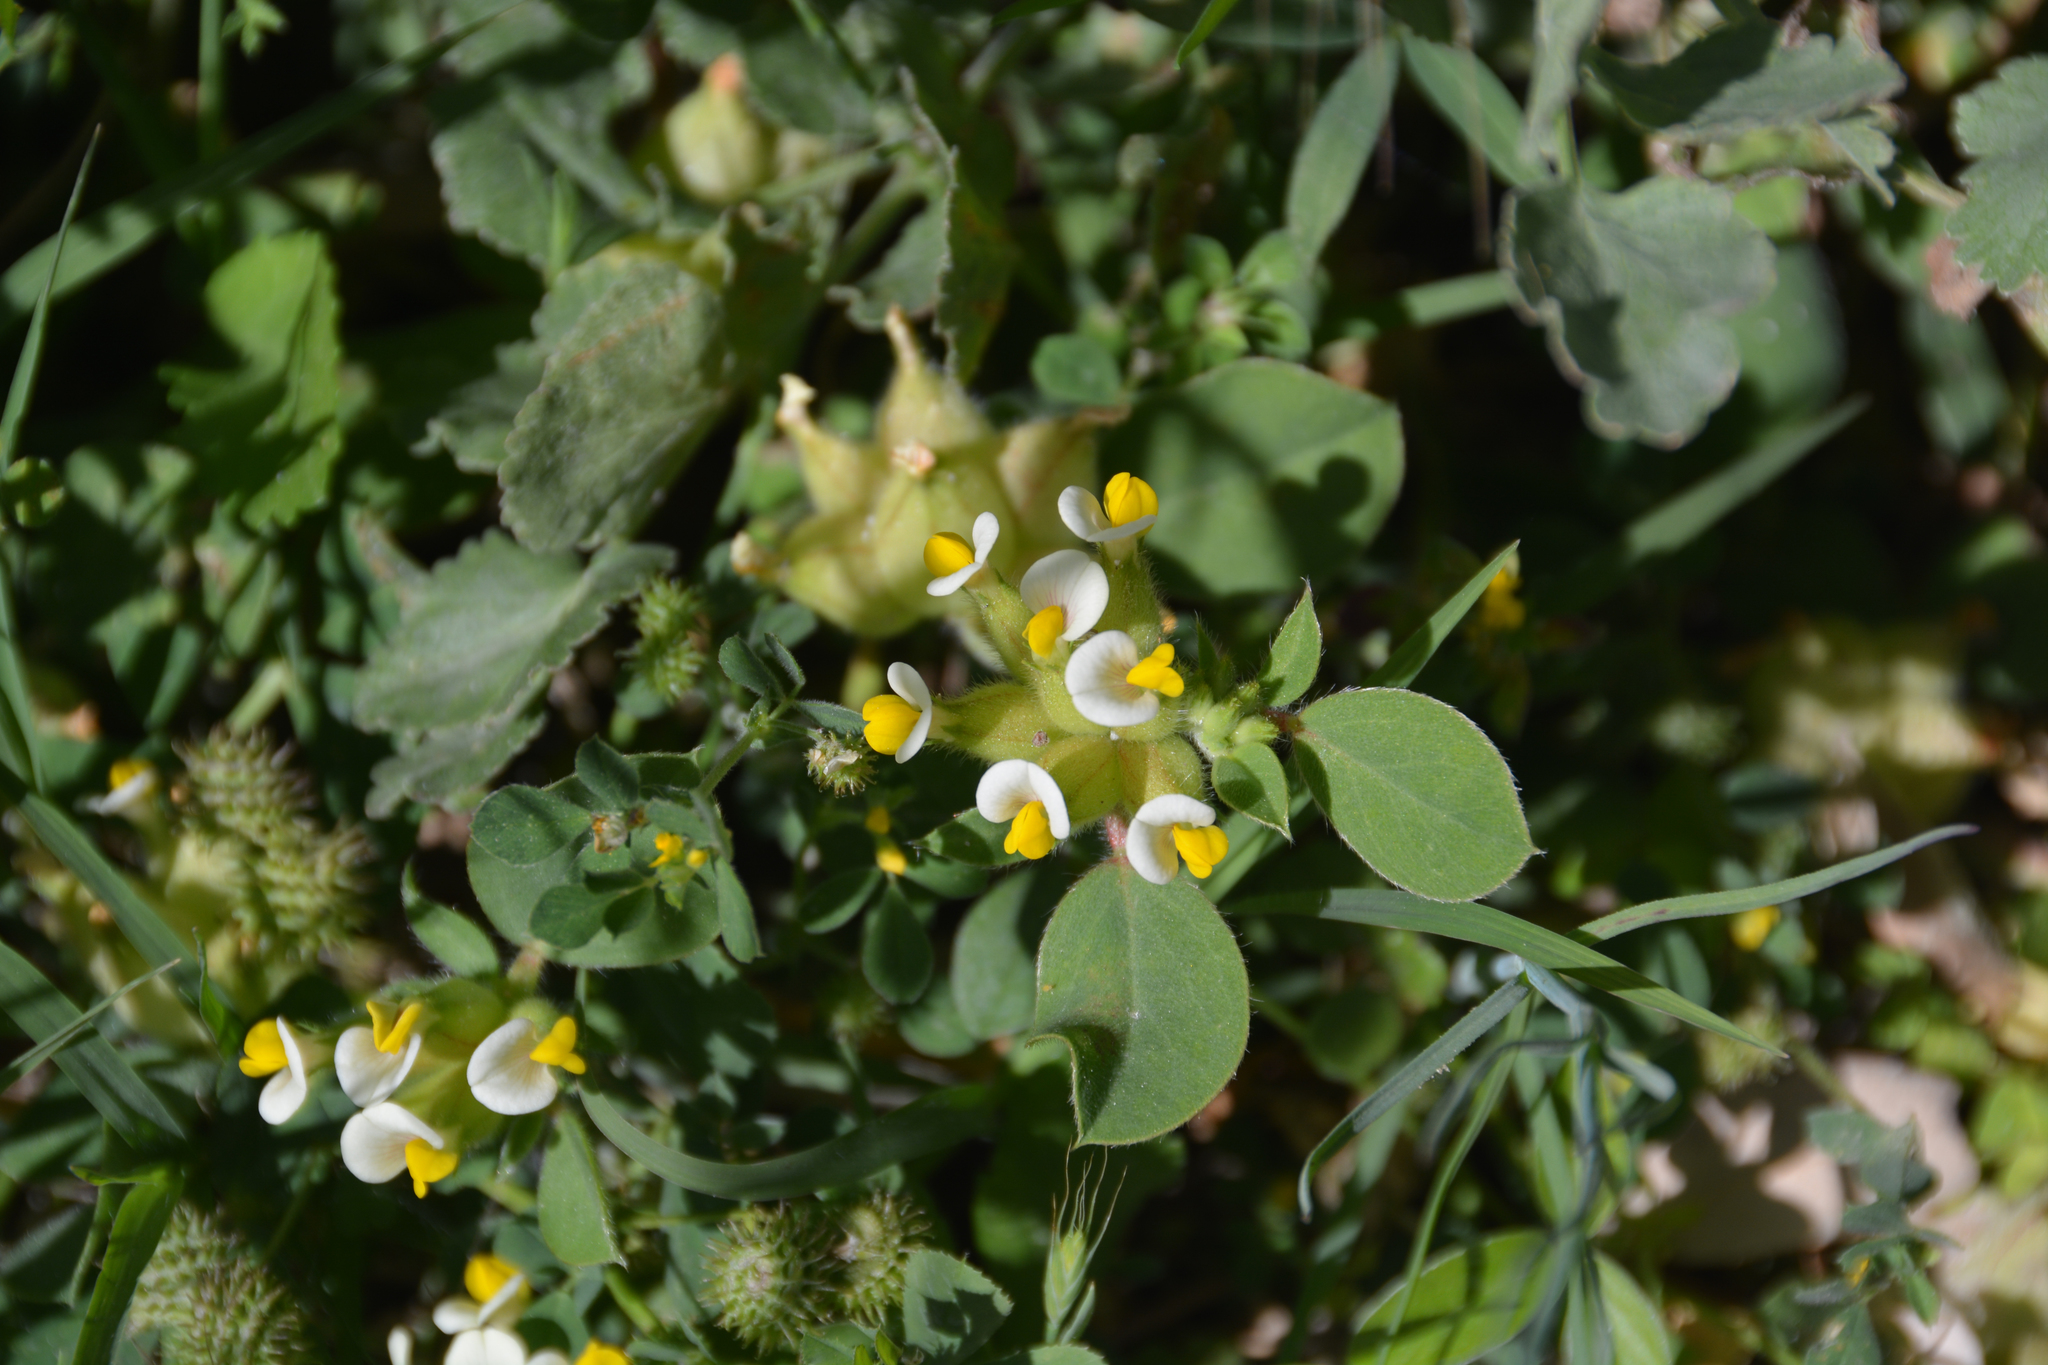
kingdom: Plantae
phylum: Tracheophyta
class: Magnoliopsida
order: Fabales
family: Fabaceae
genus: Tripodion
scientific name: Tripodion tetraphyllum
